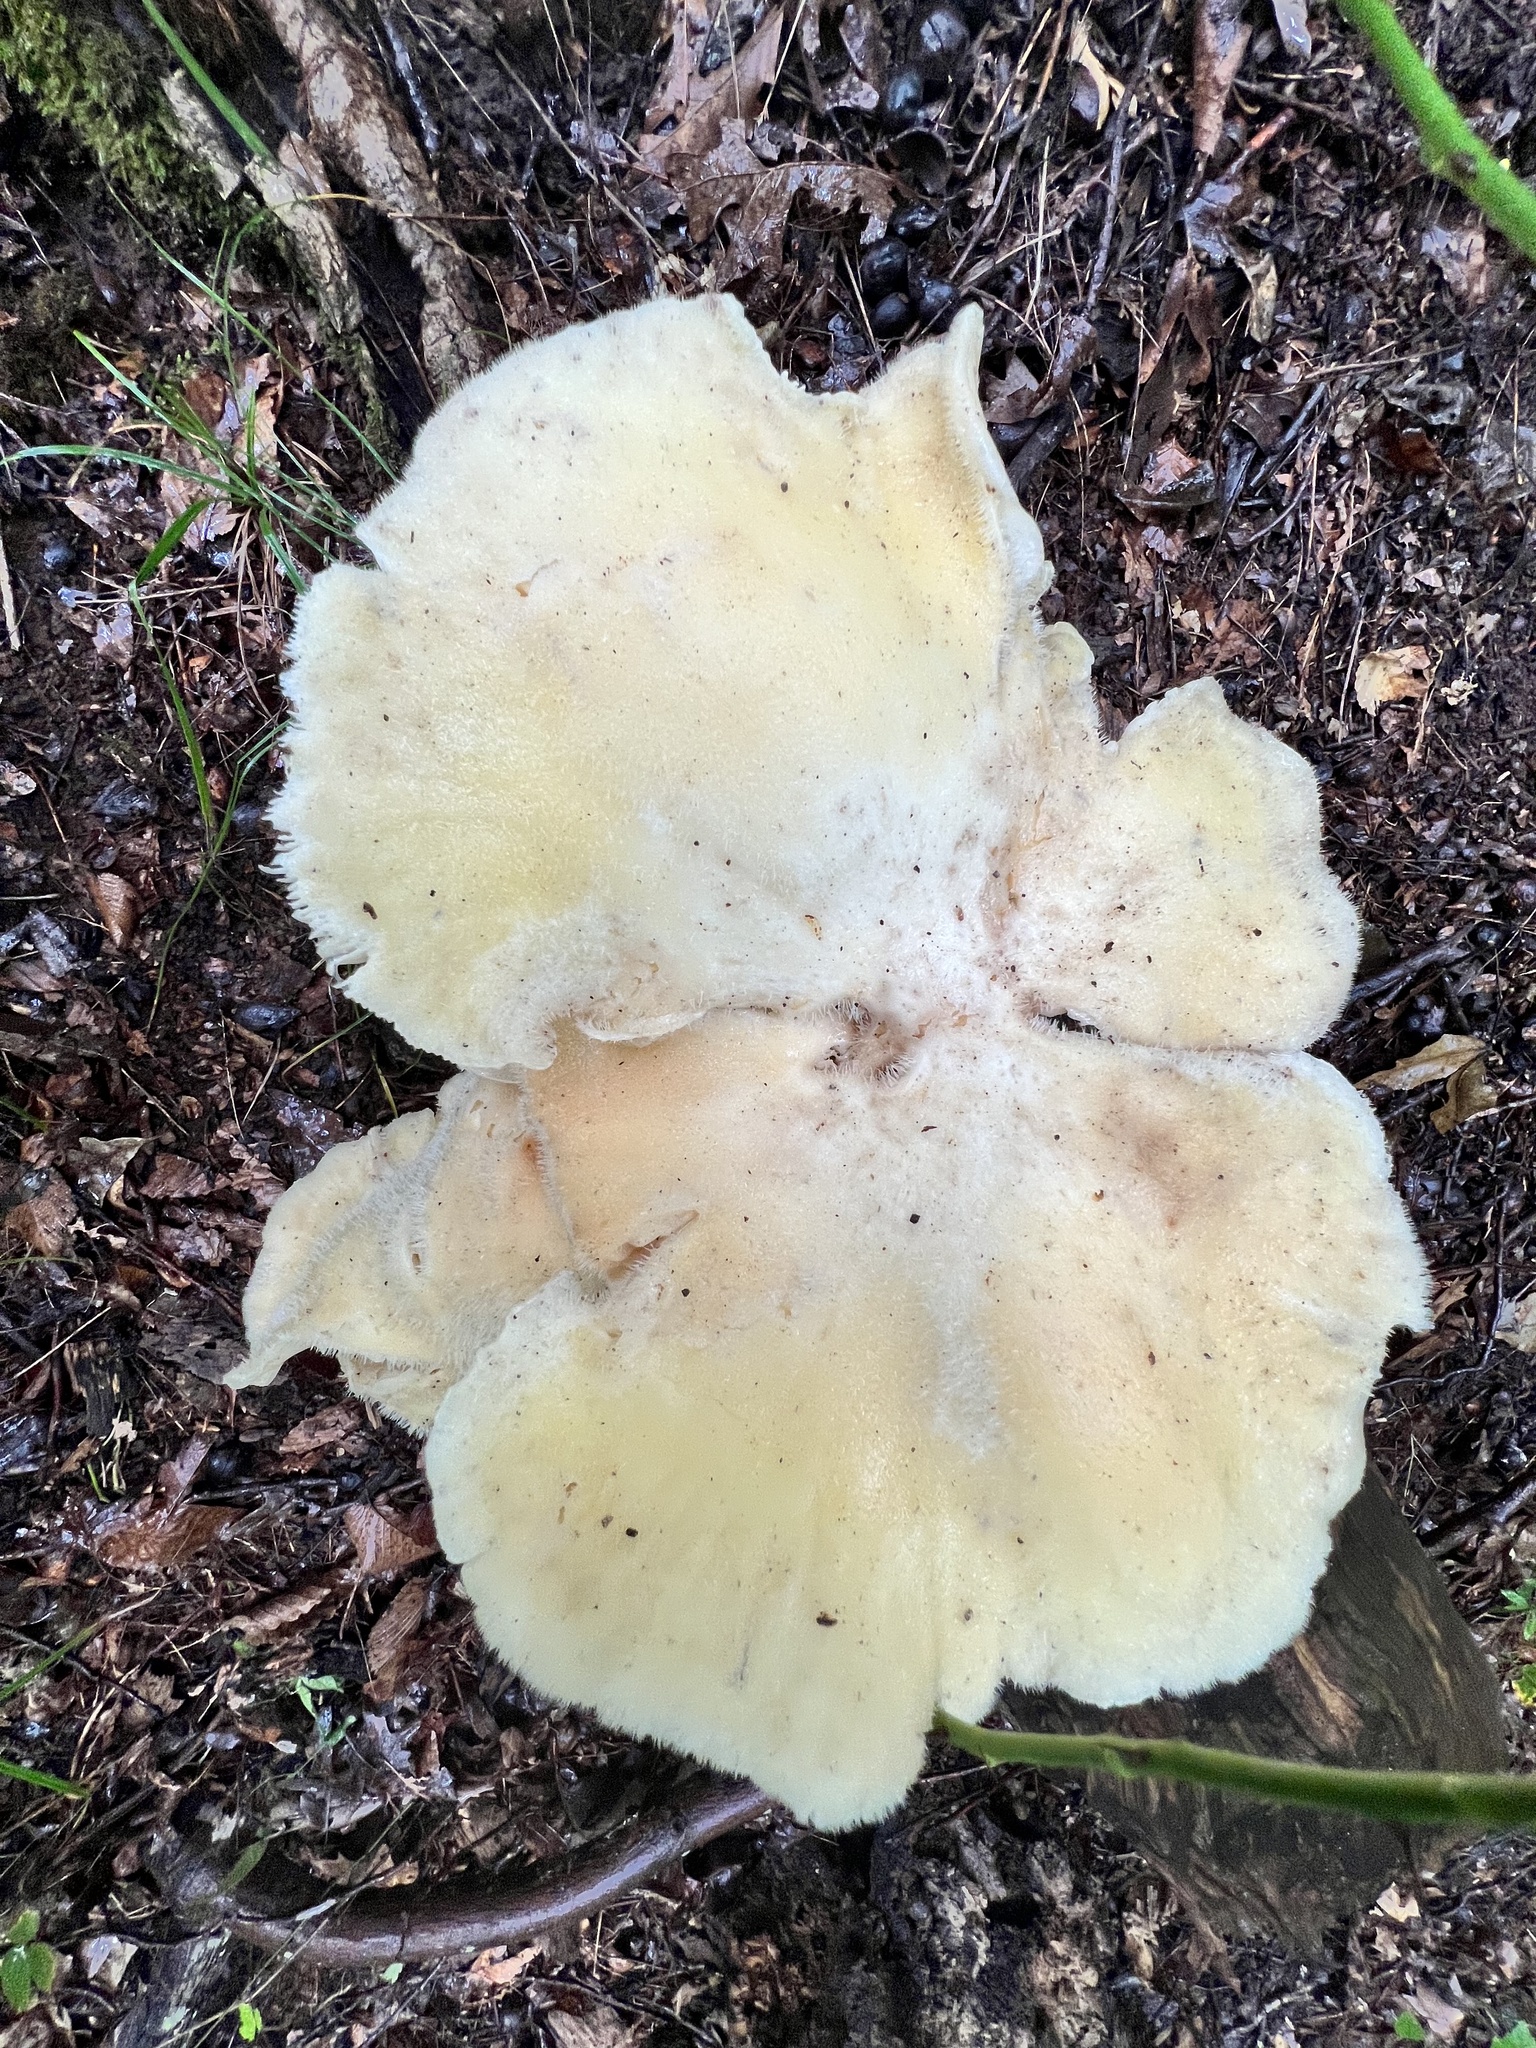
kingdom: Fungi
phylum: Basidiomycota
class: Agaricomycetes
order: Polyporales
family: Polyporaceae
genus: Lentinus
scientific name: Lentinus levis
